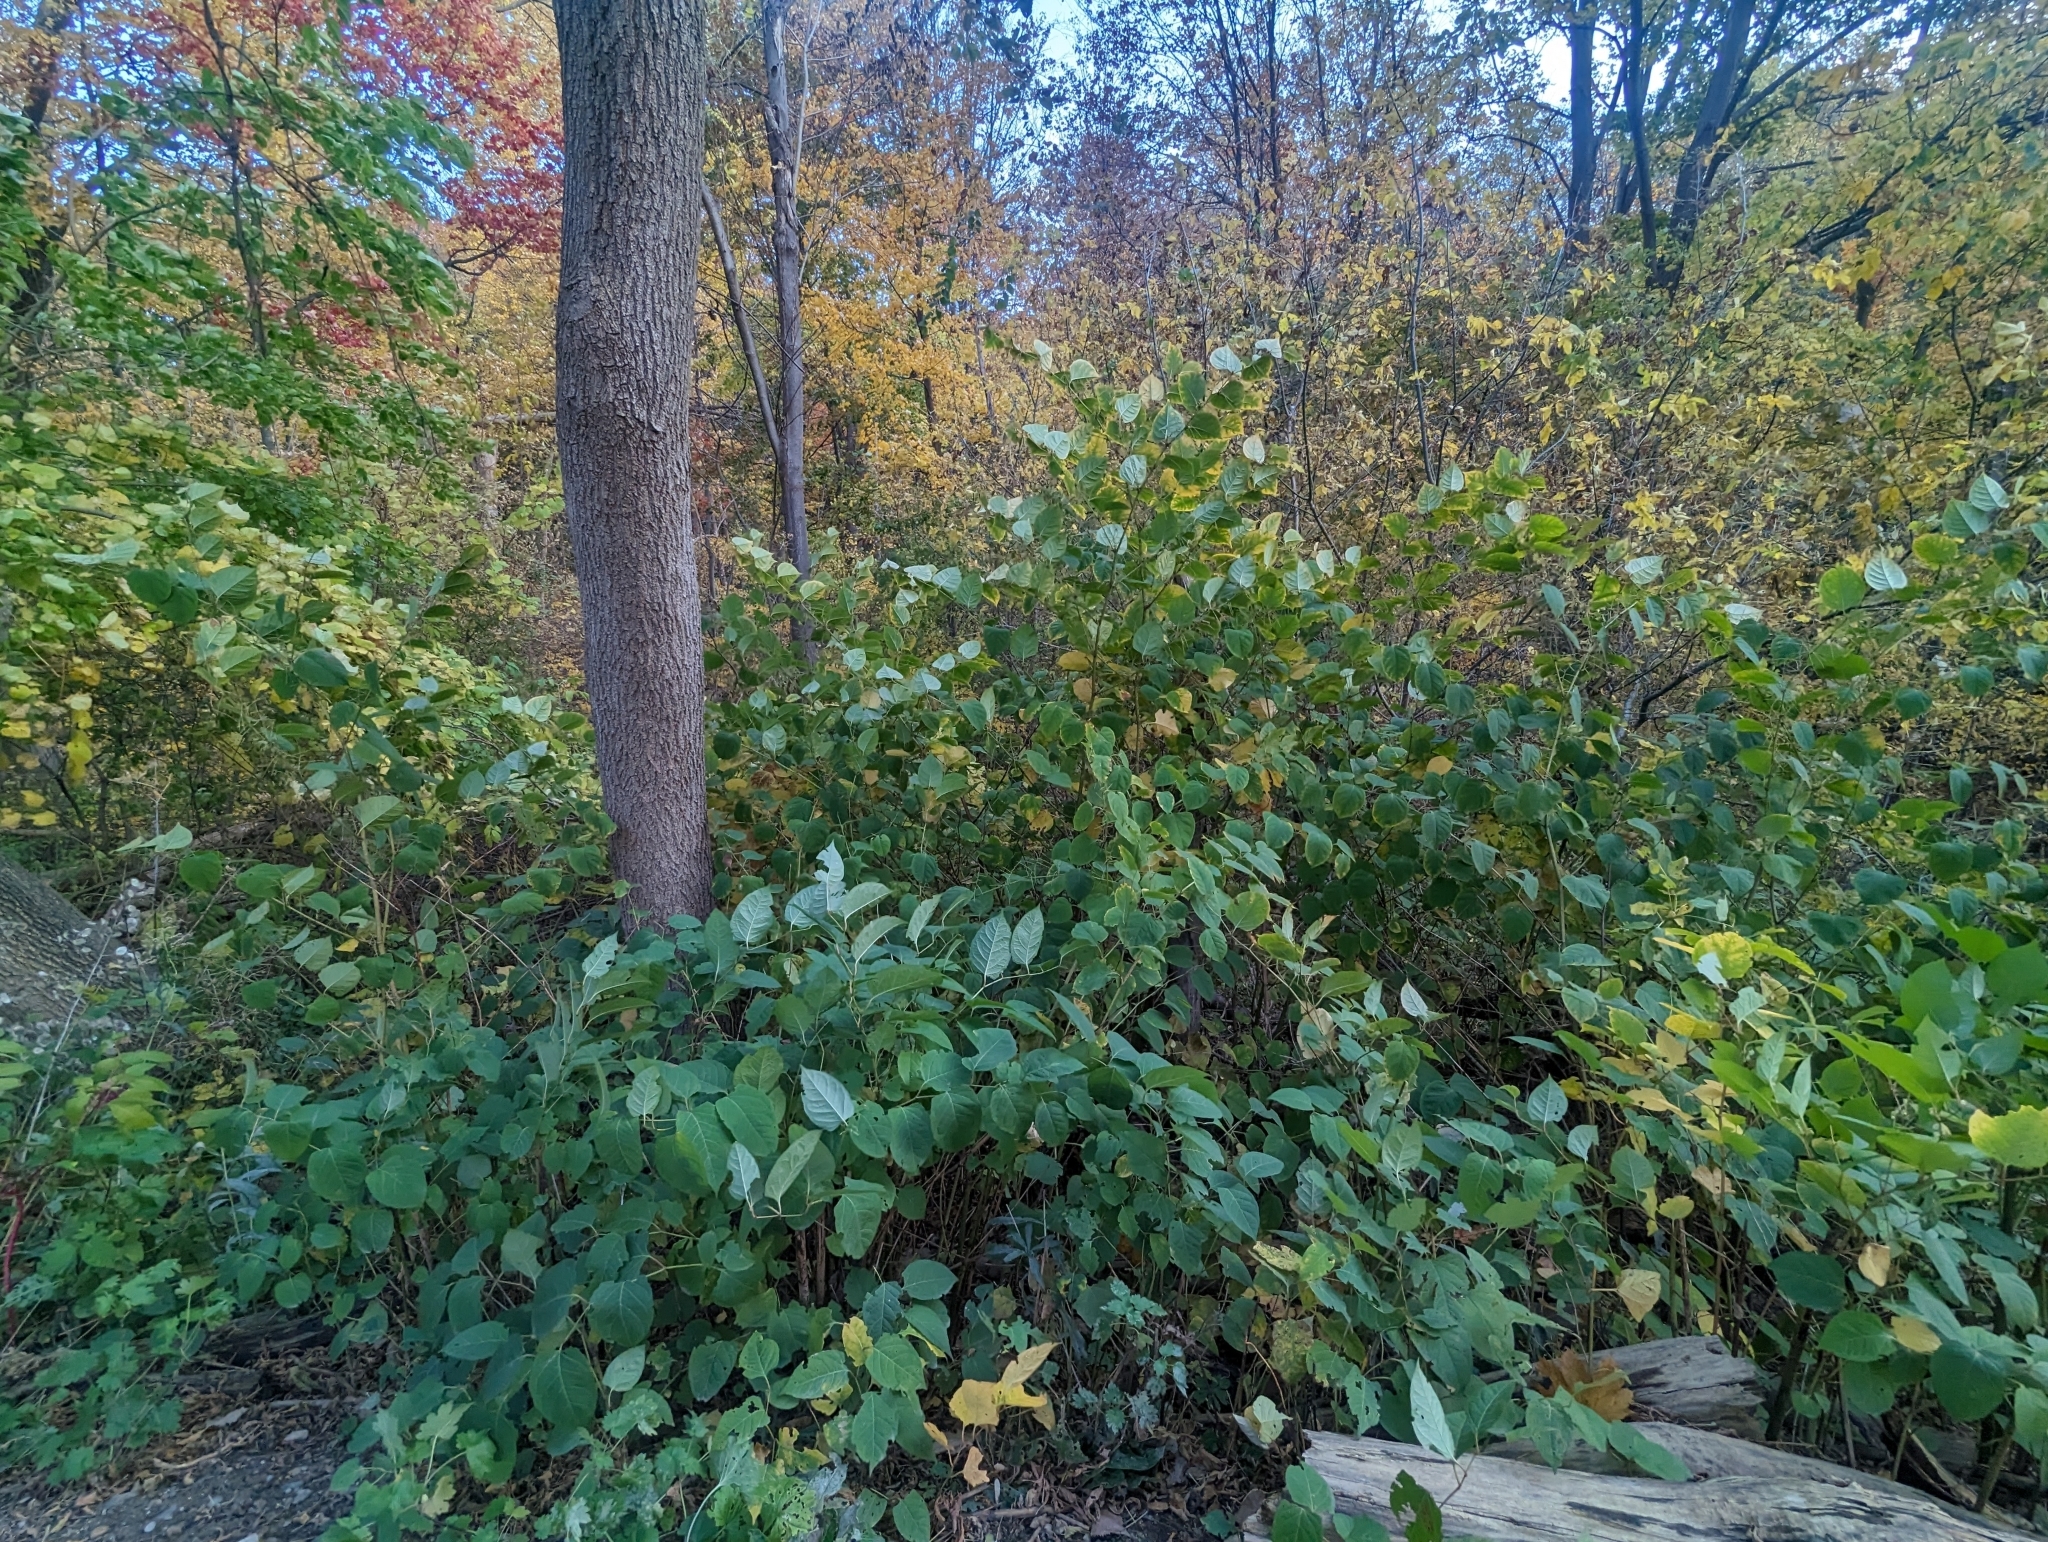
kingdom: Plantae
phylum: Tracheophyta
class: Magnoliopsida
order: Caryophyllales
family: Polygonaceae
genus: Reynoutria
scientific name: Reynoutria japonica
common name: Japanese knotweed
